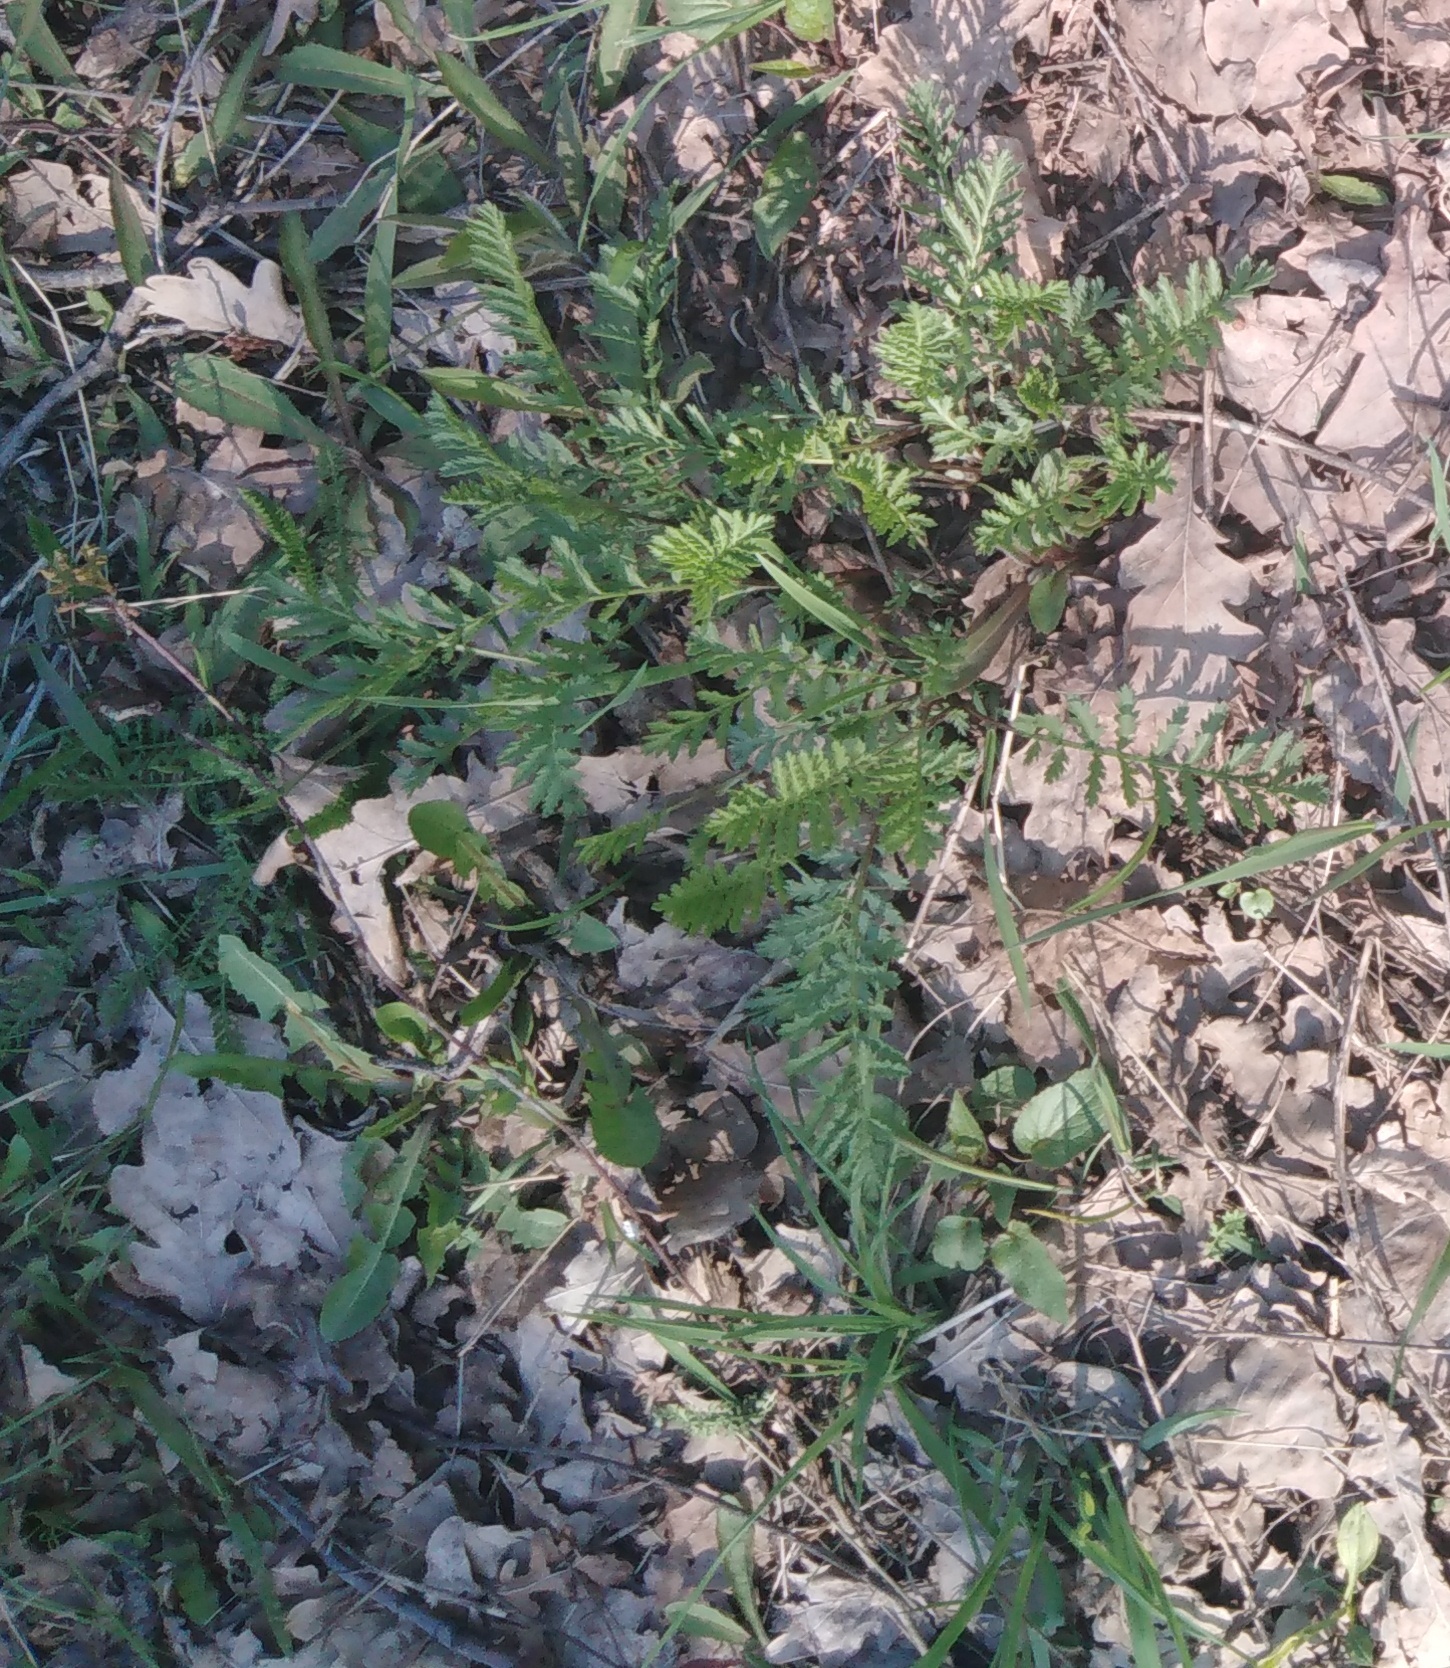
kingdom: Plantae
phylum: Tracheophyta
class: Magnoliopsida
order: Asterales
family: Asteraceae
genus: Tanacetum
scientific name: Tanacetum vulgare
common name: Common tansy
